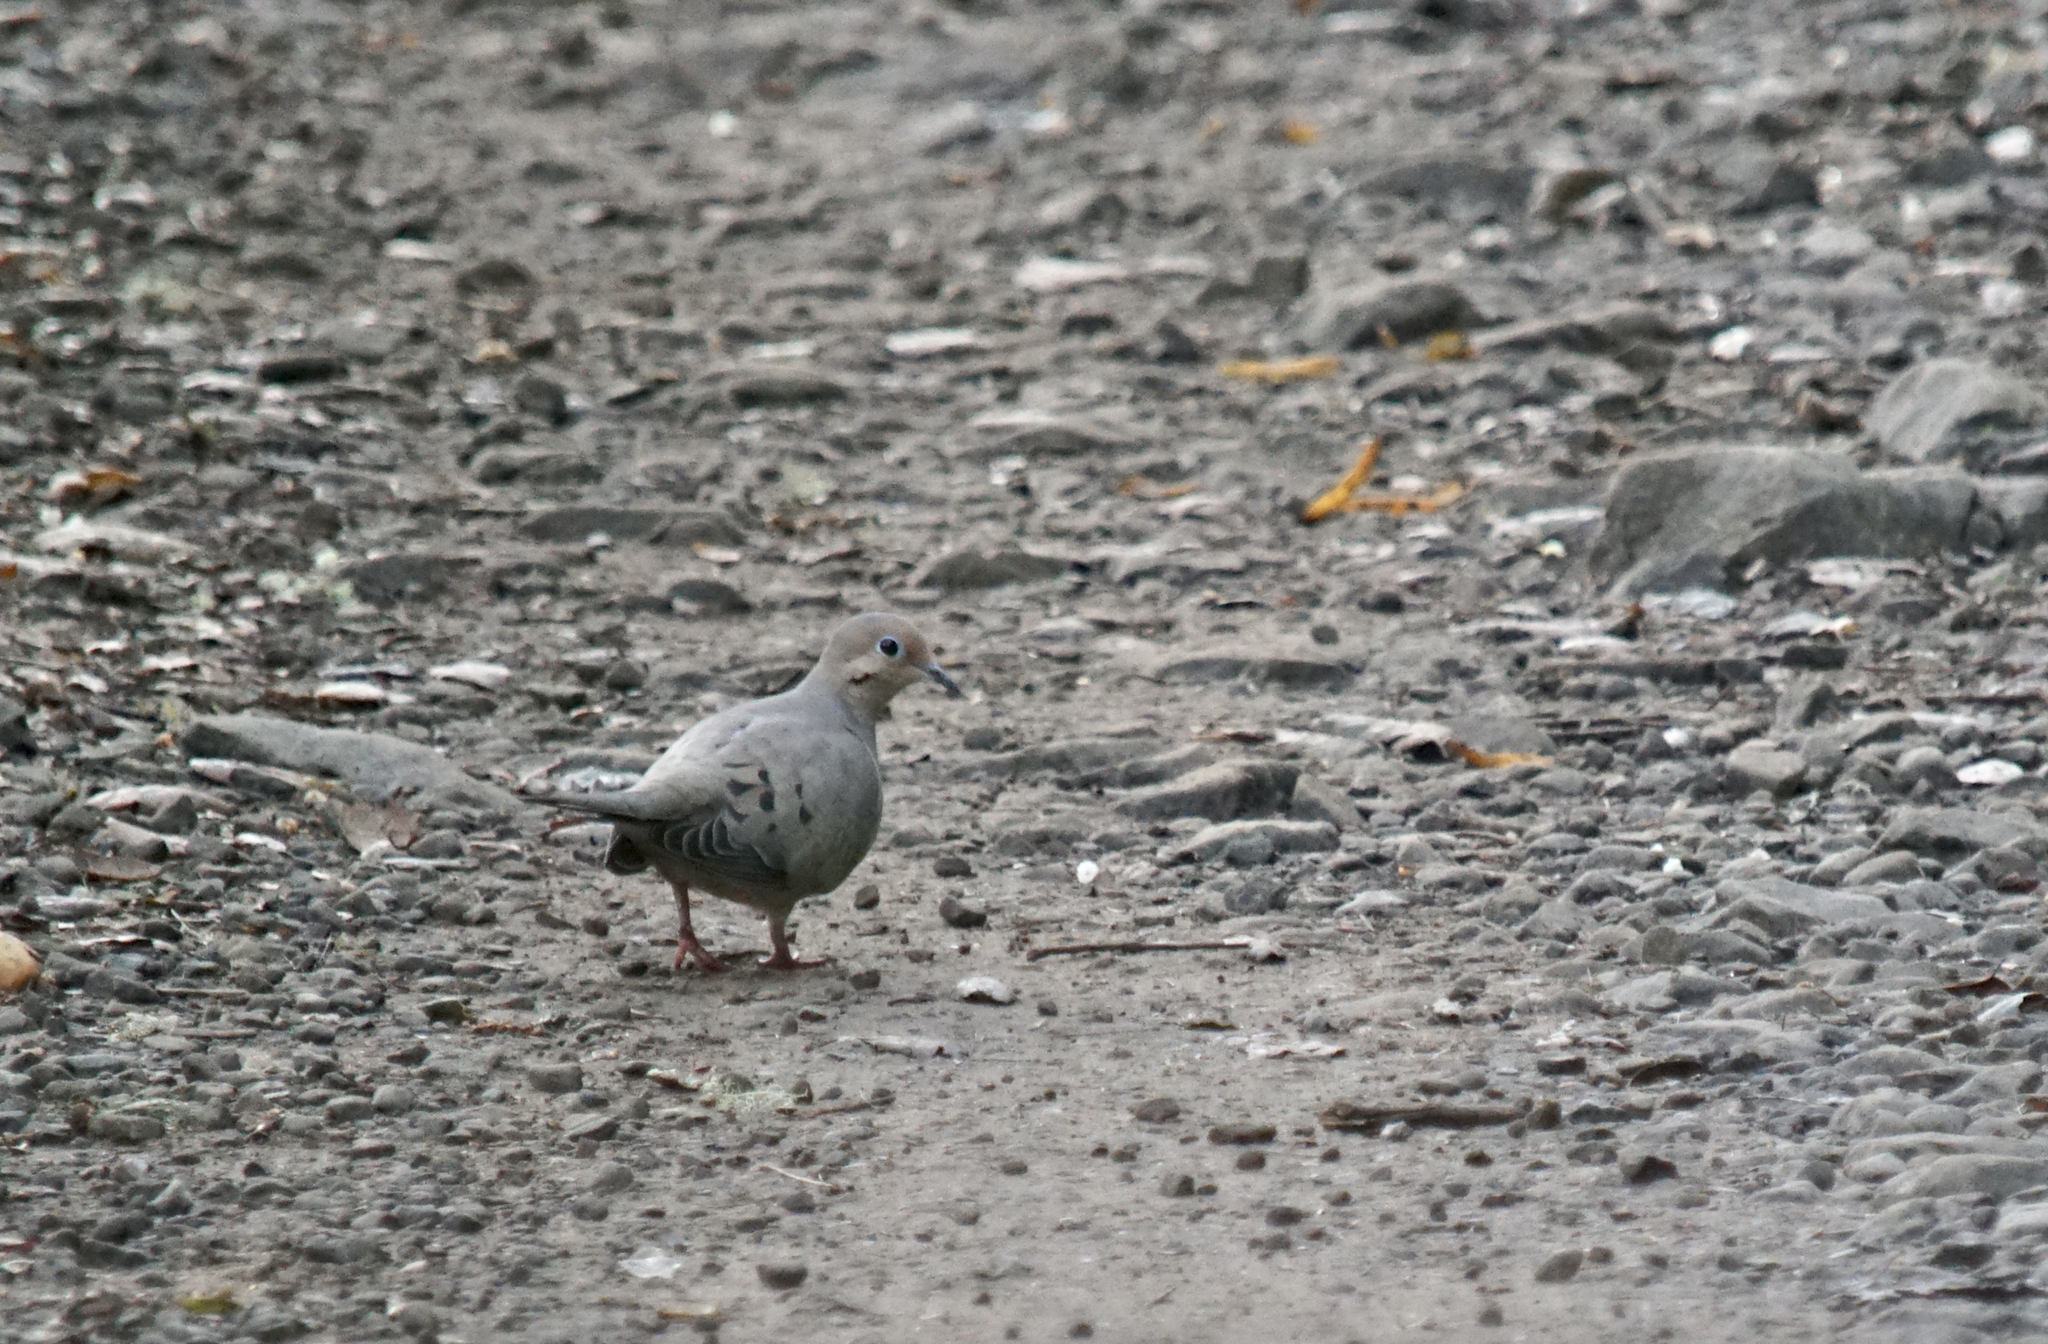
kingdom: Animalia
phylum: Chordata
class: Aves
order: Columbiformes
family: Columbidae
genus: Zenaida
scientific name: Zenaida macroura
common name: Mourning dove
